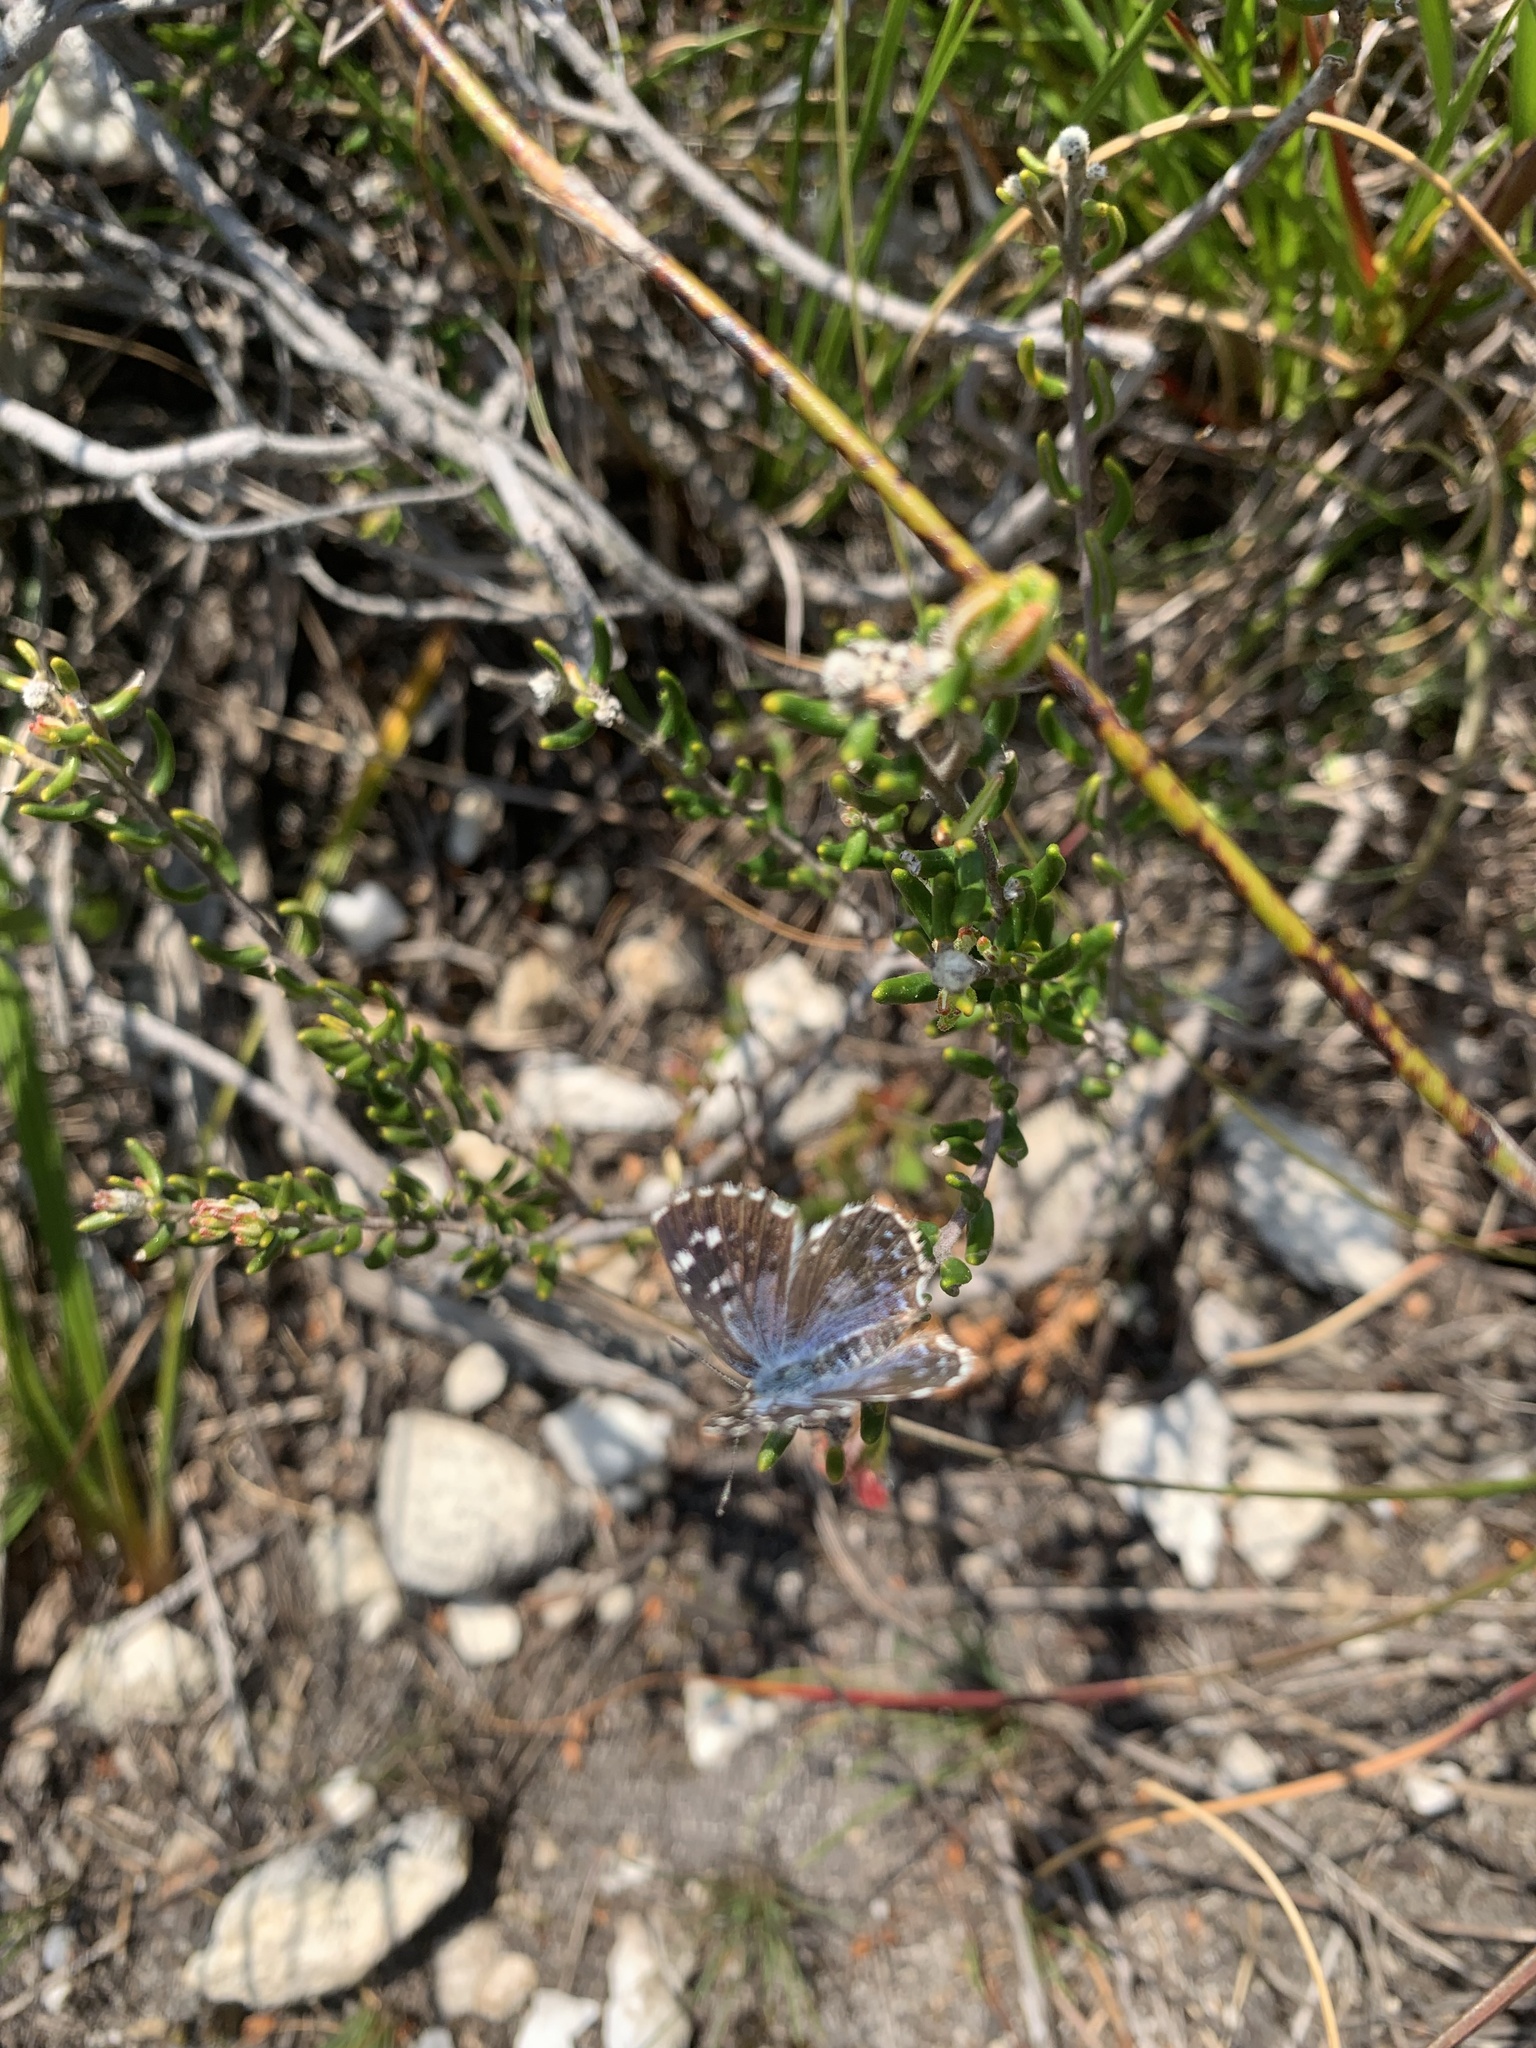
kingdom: Animalia
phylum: Arthropoda
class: Insecta
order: Lepidoptera
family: Lycaenidae
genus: Tarucus
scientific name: Tarucus thespis
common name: Vivid dotted blue
